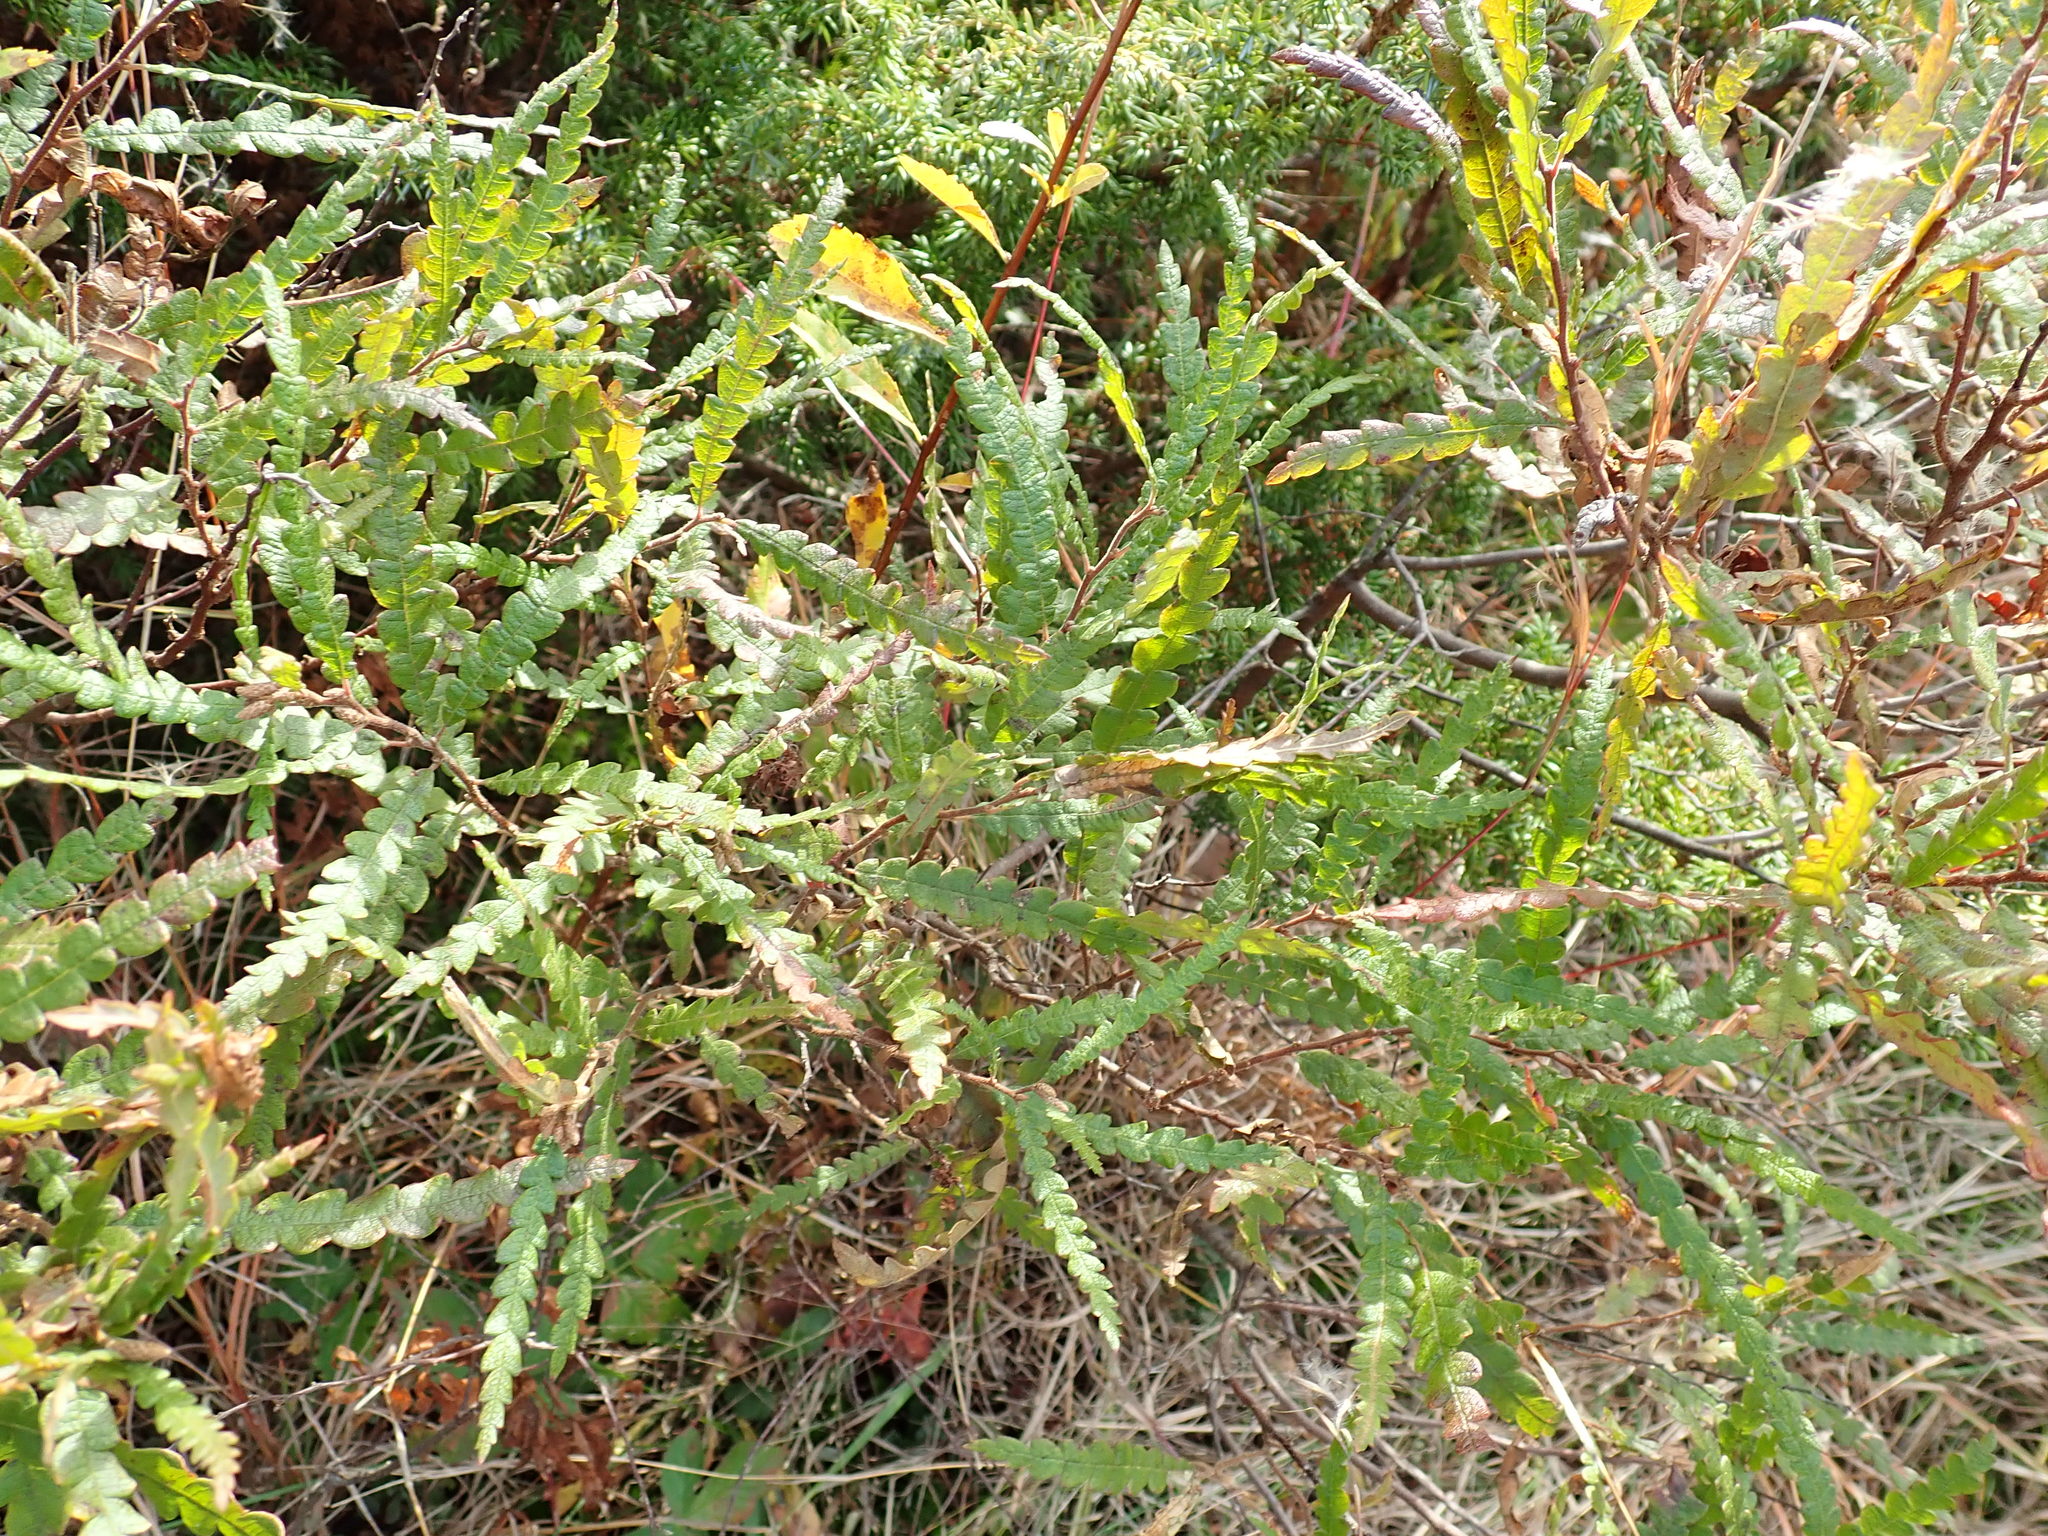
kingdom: Plantae
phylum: Tracheophyta
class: Magnoliopsida
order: Fagales
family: Myricaceae
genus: Comptonia
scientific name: Comptonia peregrina
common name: Sweet-fern
